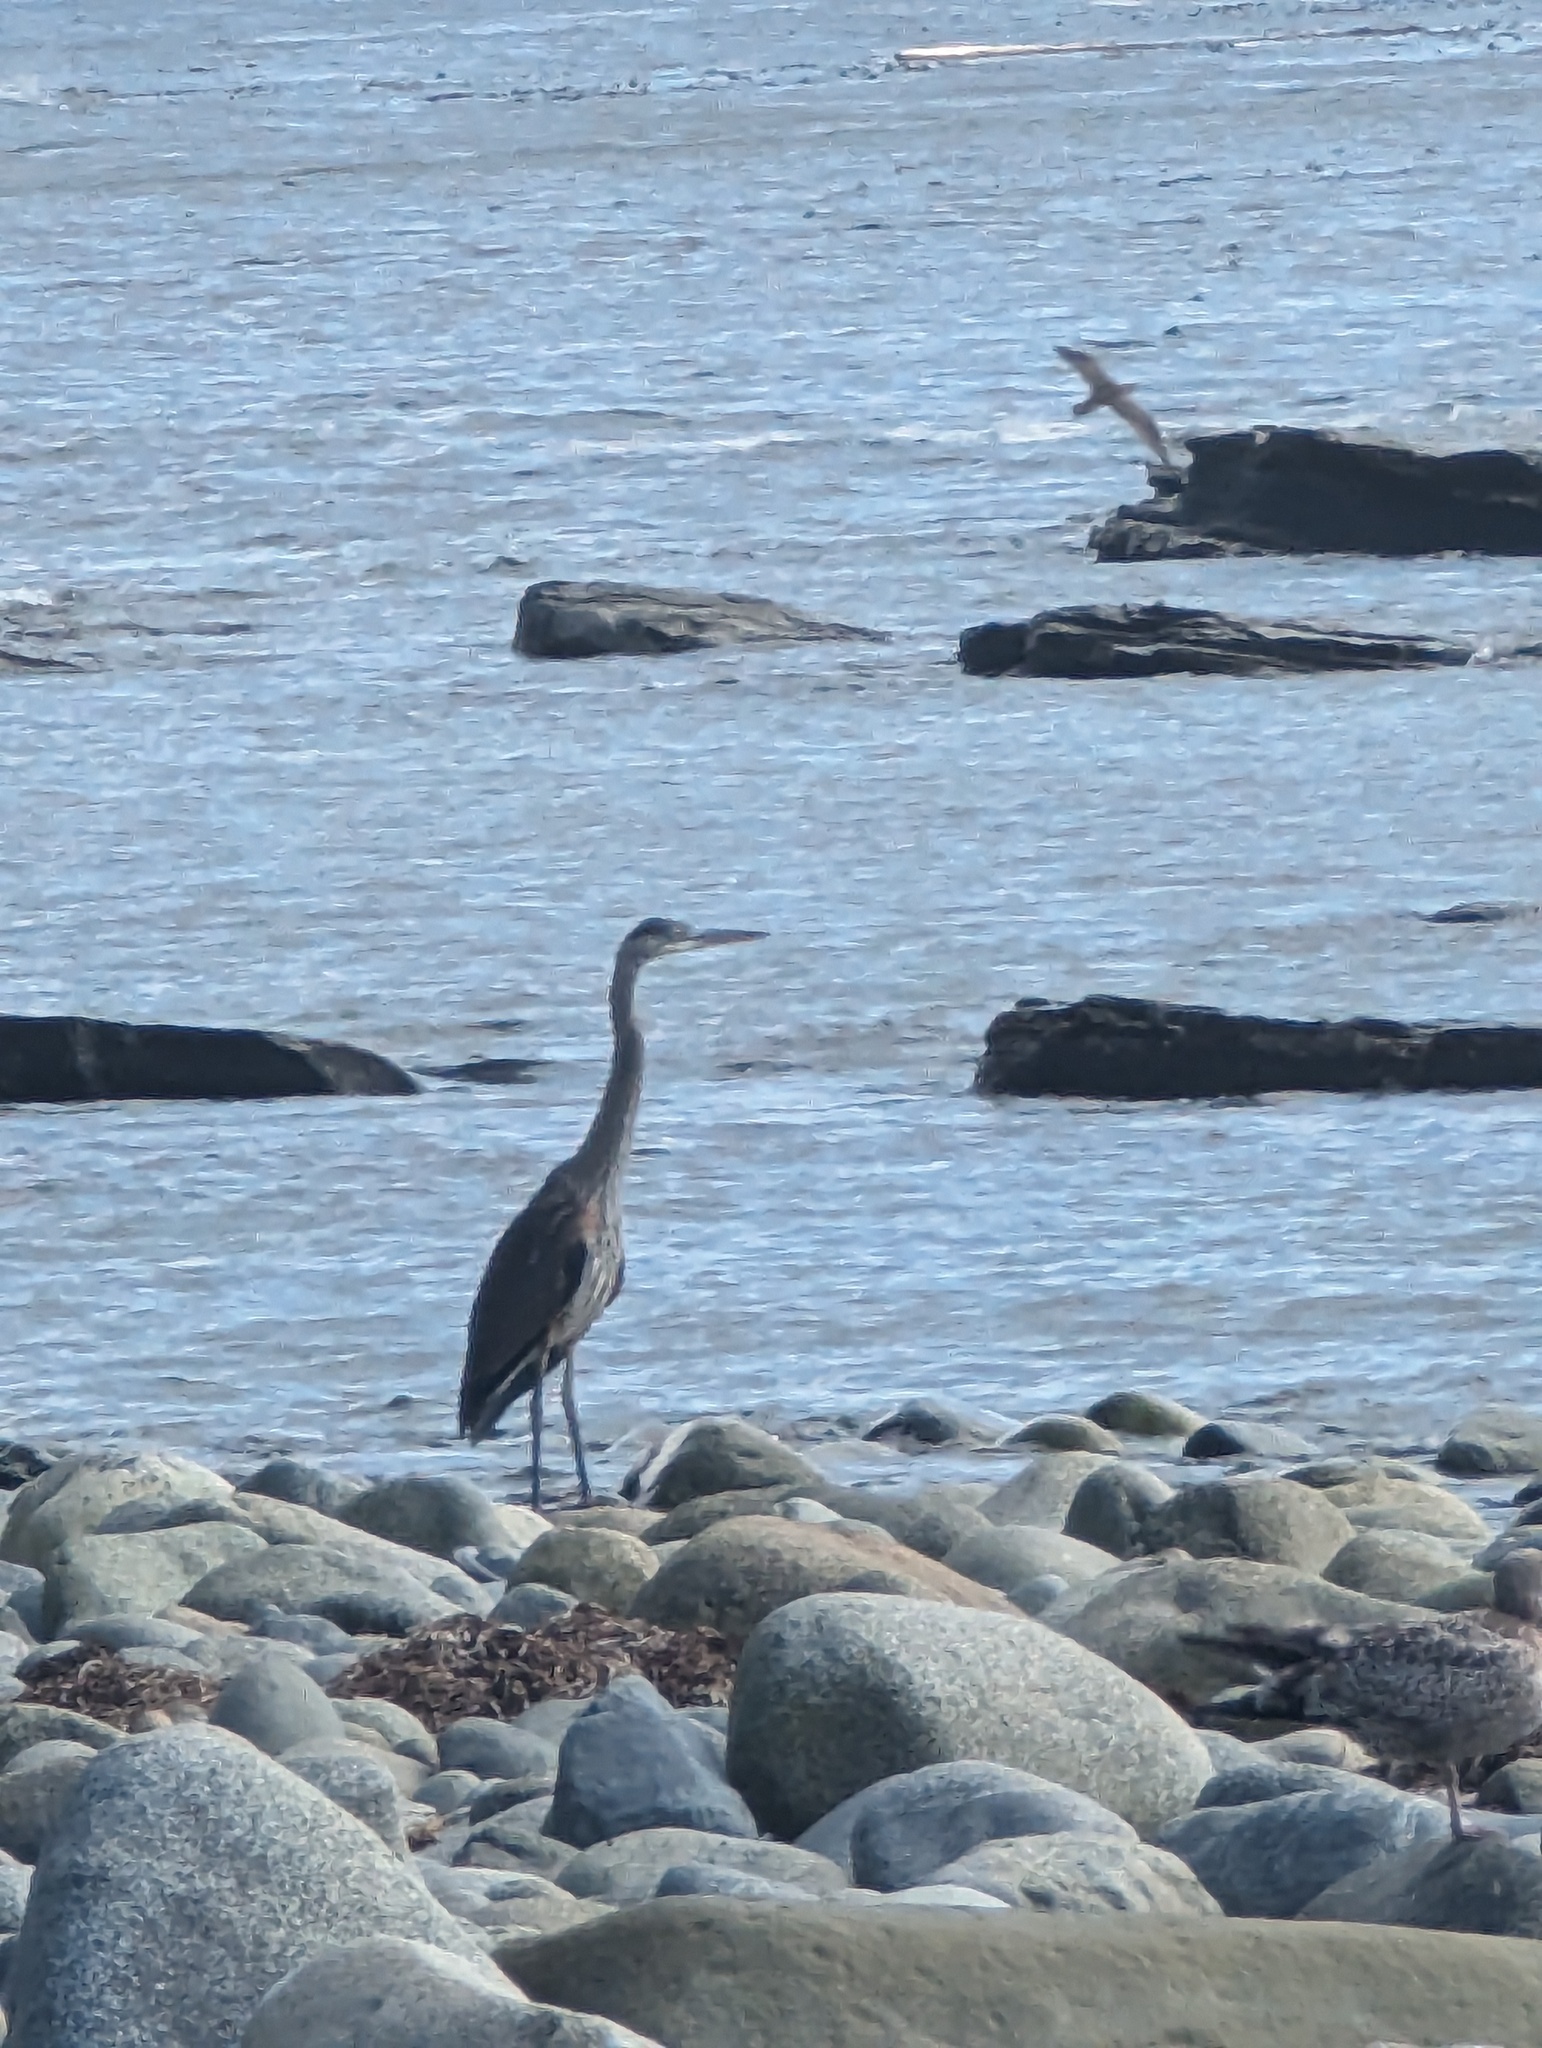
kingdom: Animalia
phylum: Chordata
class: Aves
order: Pelecaniformes
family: Ardeidae
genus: Ardea
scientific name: Ardea herodias
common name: Great blue heron
